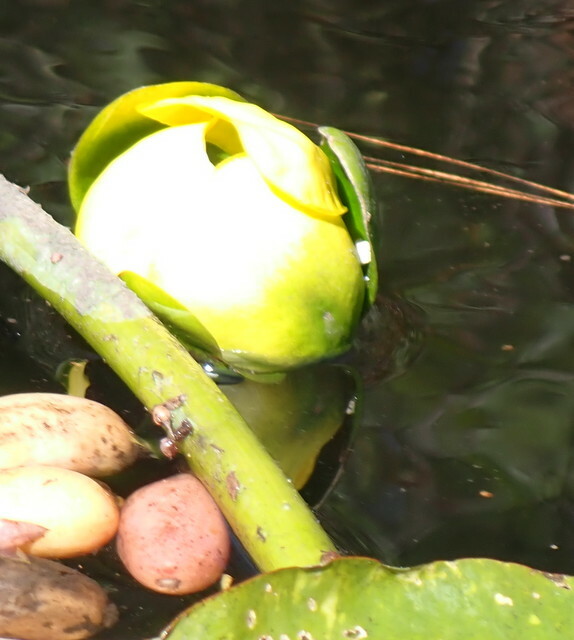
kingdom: Plantae
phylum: Tracheophyta
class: Magnoliopsida
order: Nymphaeales
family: Nymphaeaceae
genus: Nuphar
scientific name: Nuphar advena
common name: Spatter-dock
